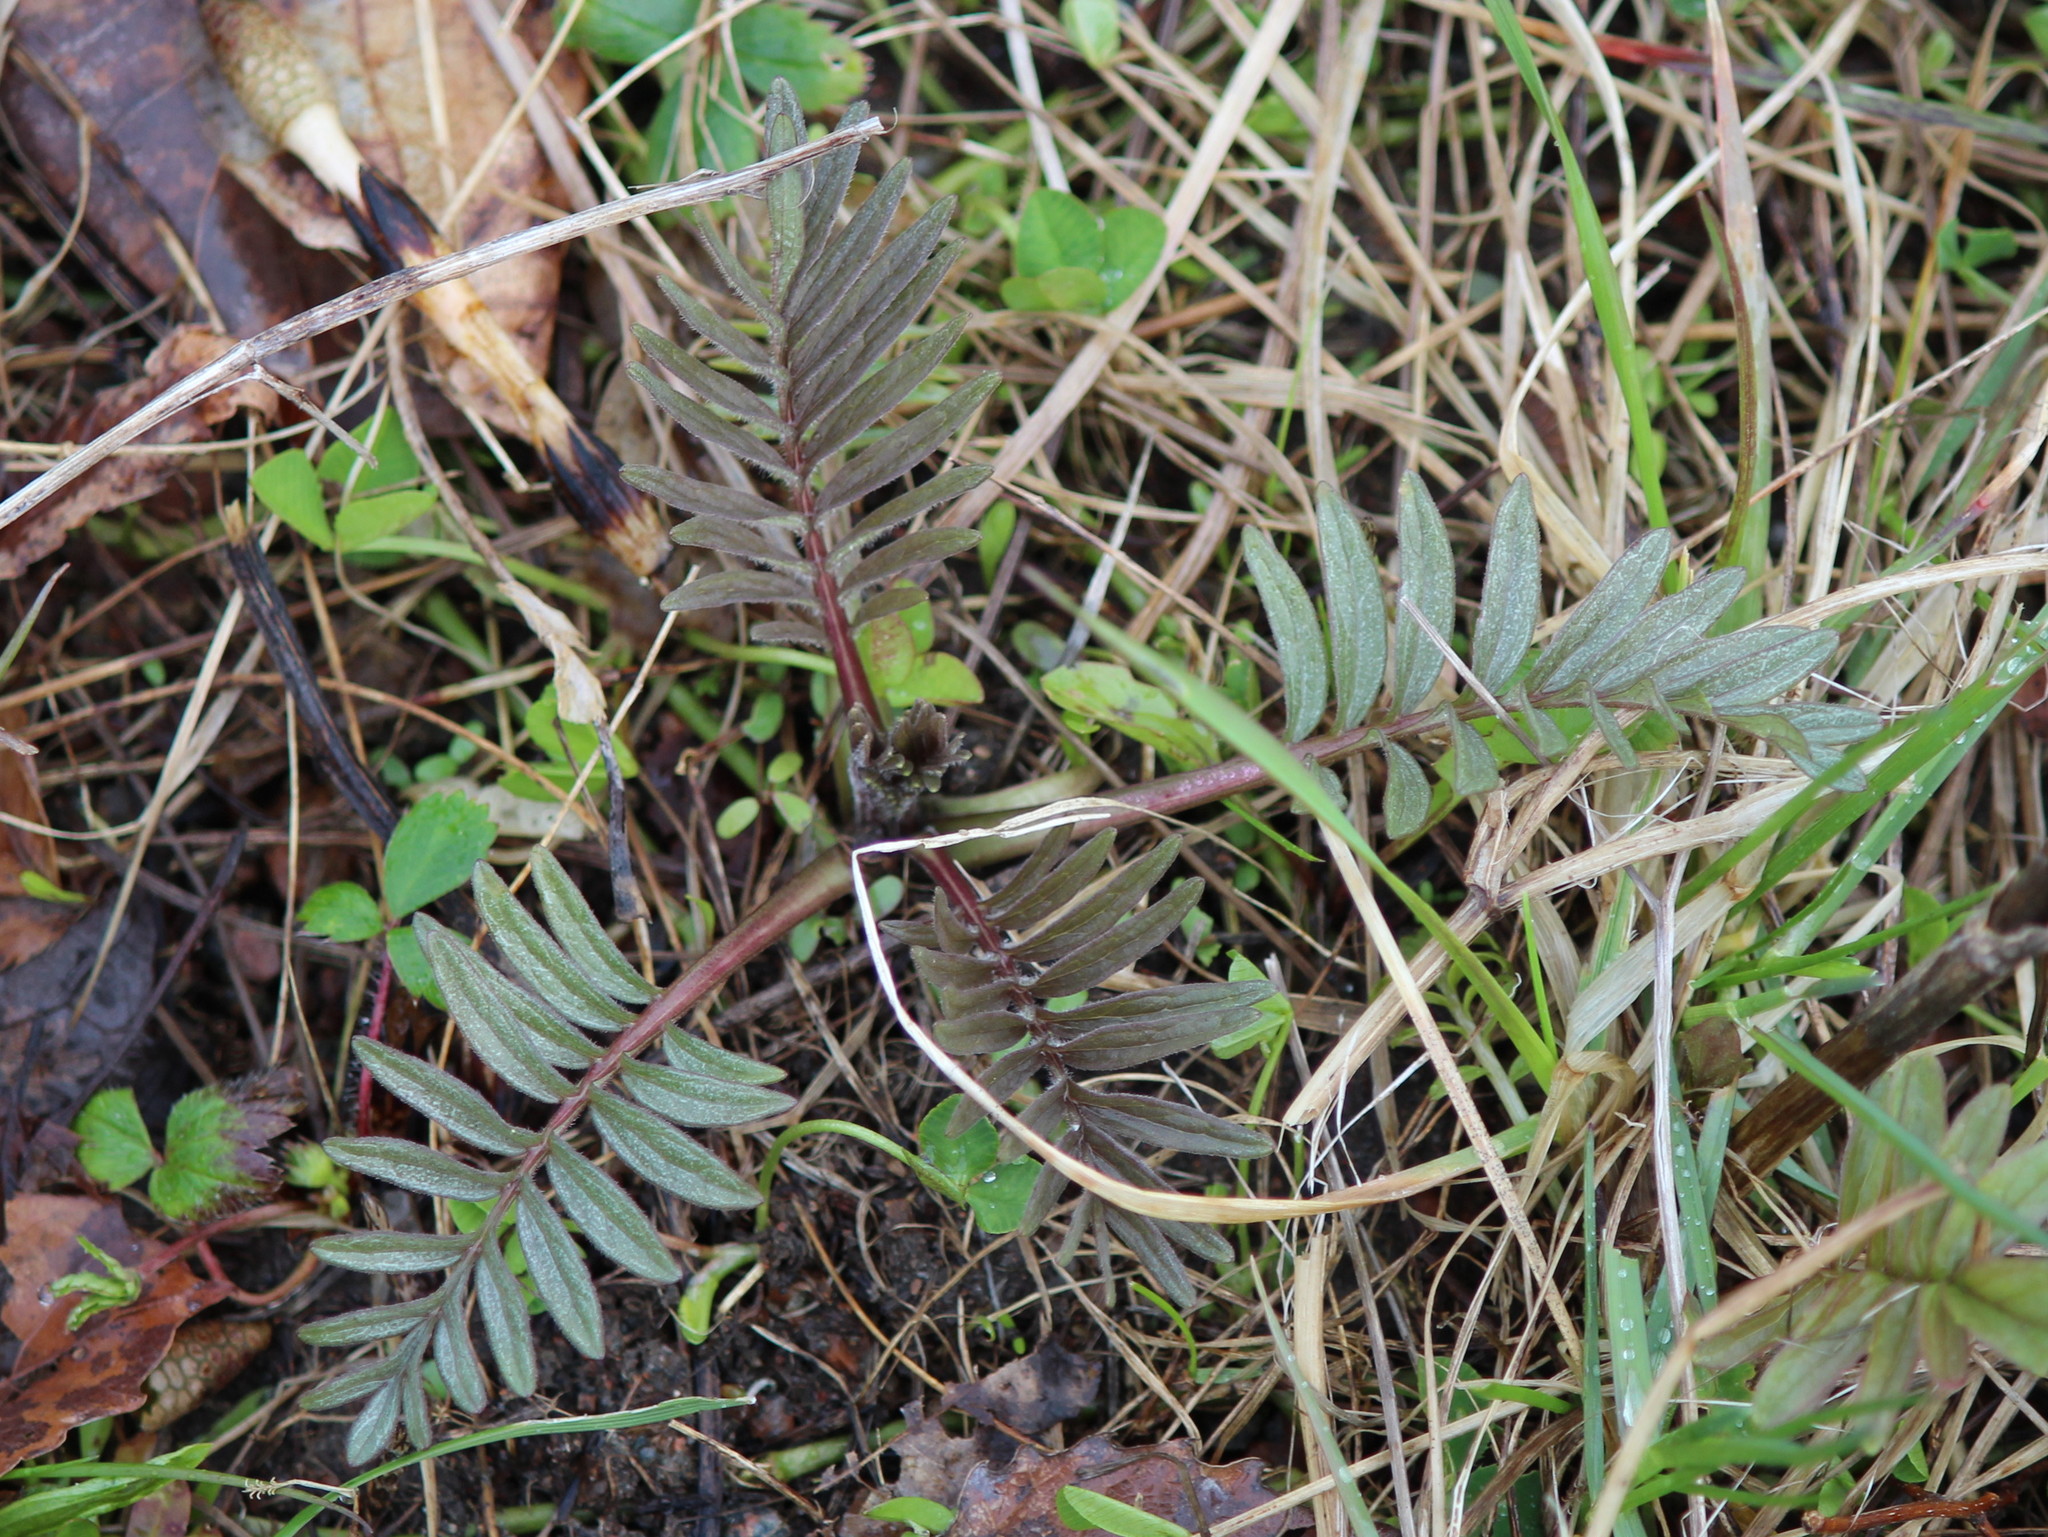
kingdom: Plantae
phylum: Tracheophyta
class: Magnoliopsida
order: Dipsacales
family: Caprifoliaceae
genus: Valeriana
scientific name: Valeriana officinalis
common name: Common valerian
